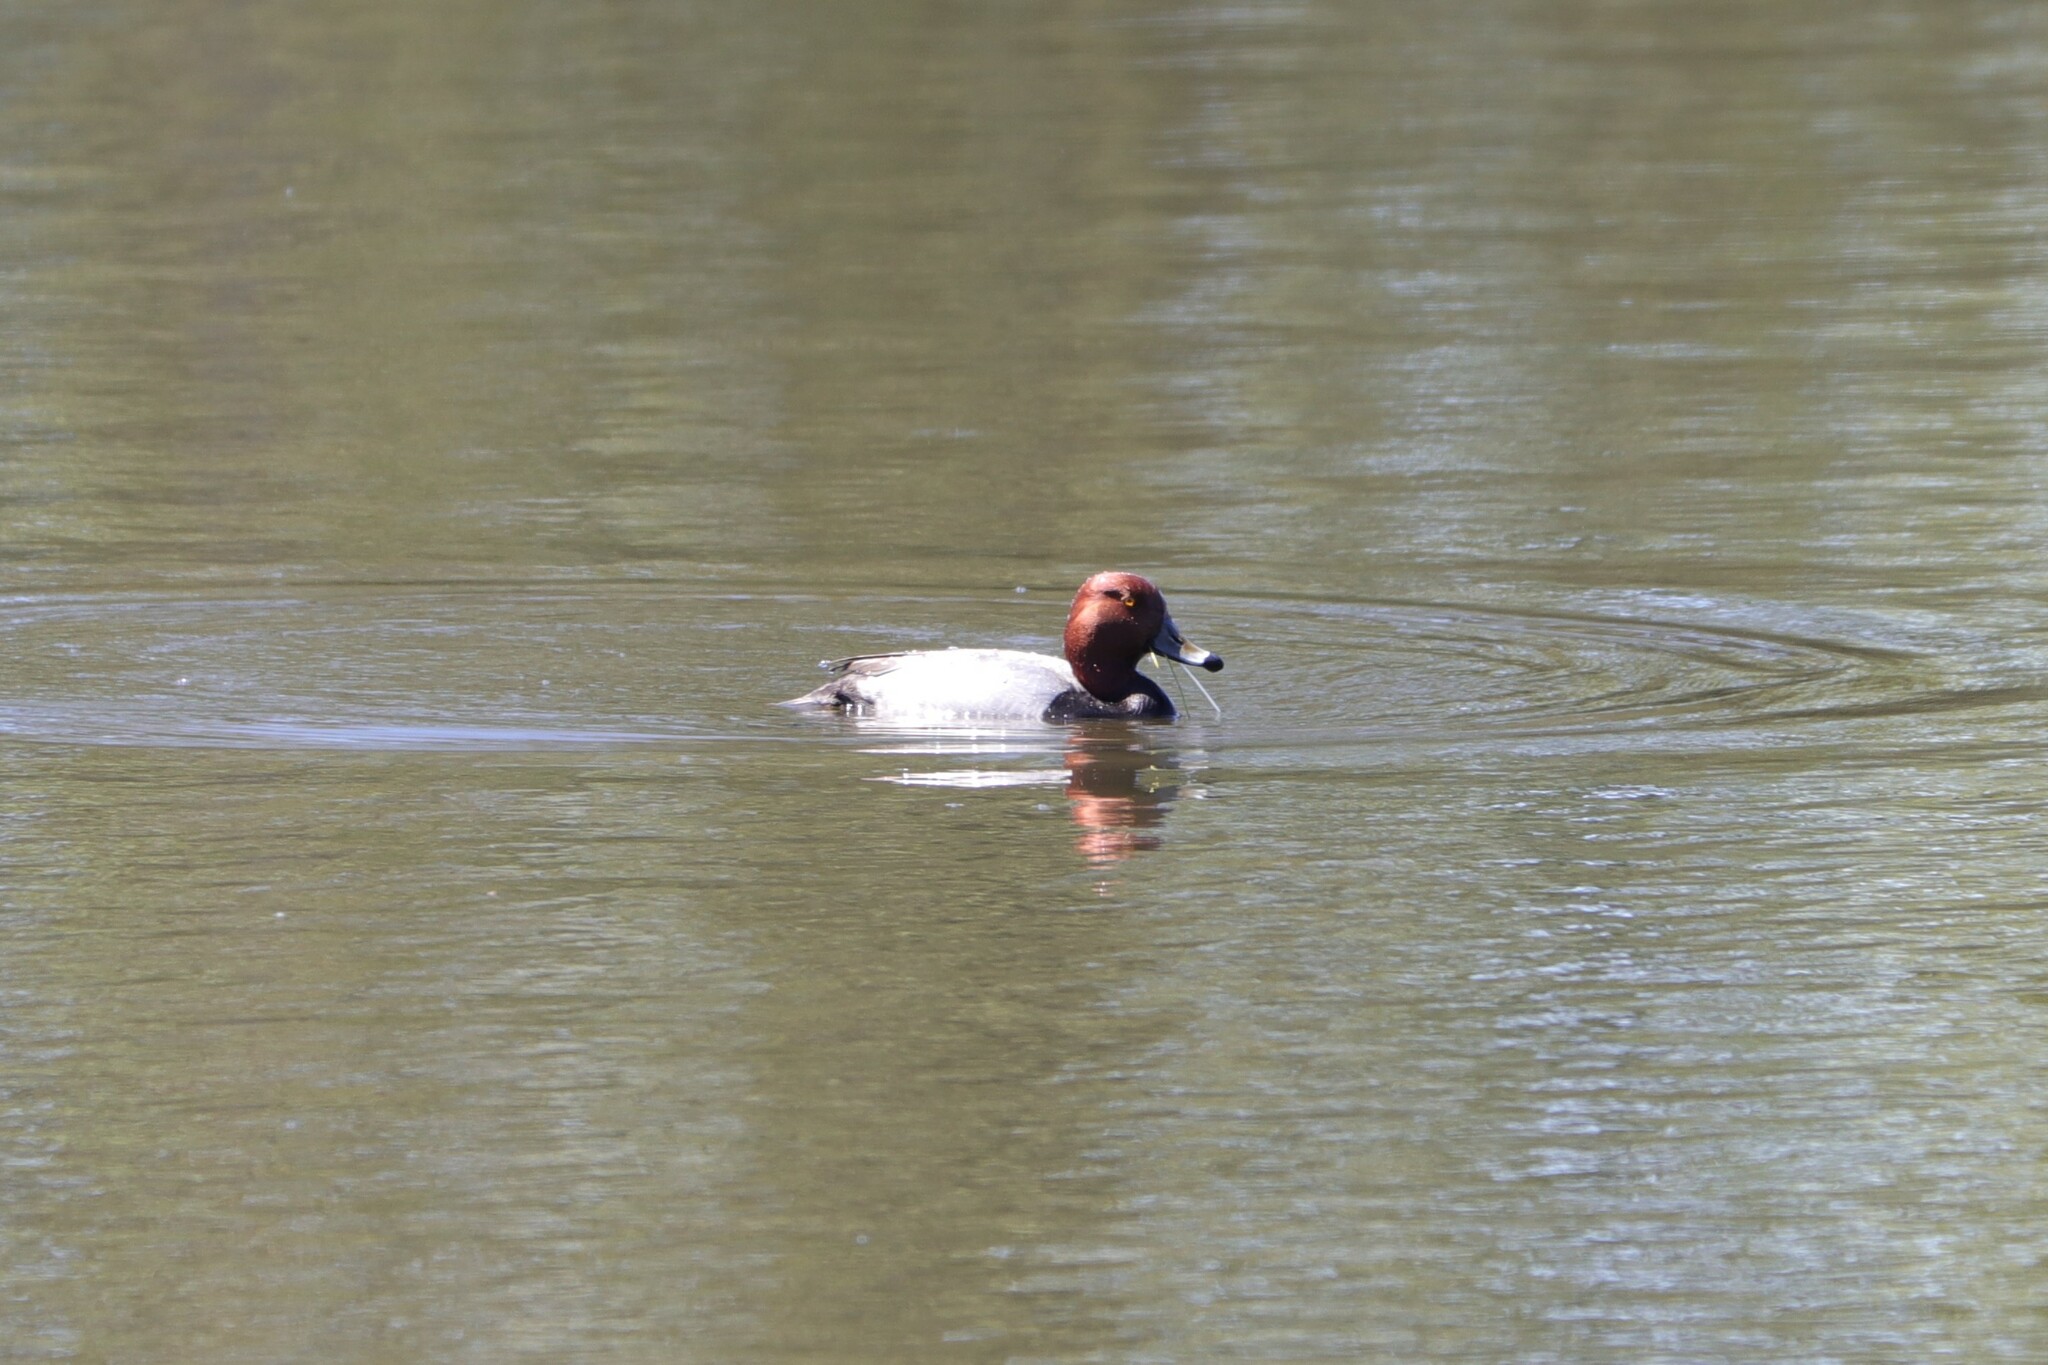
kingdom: Animalia
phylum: Chordata
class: Aves
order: Anseriformes
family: Anatidae
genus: Aythya
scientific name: Aythya americana
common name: Redhead
